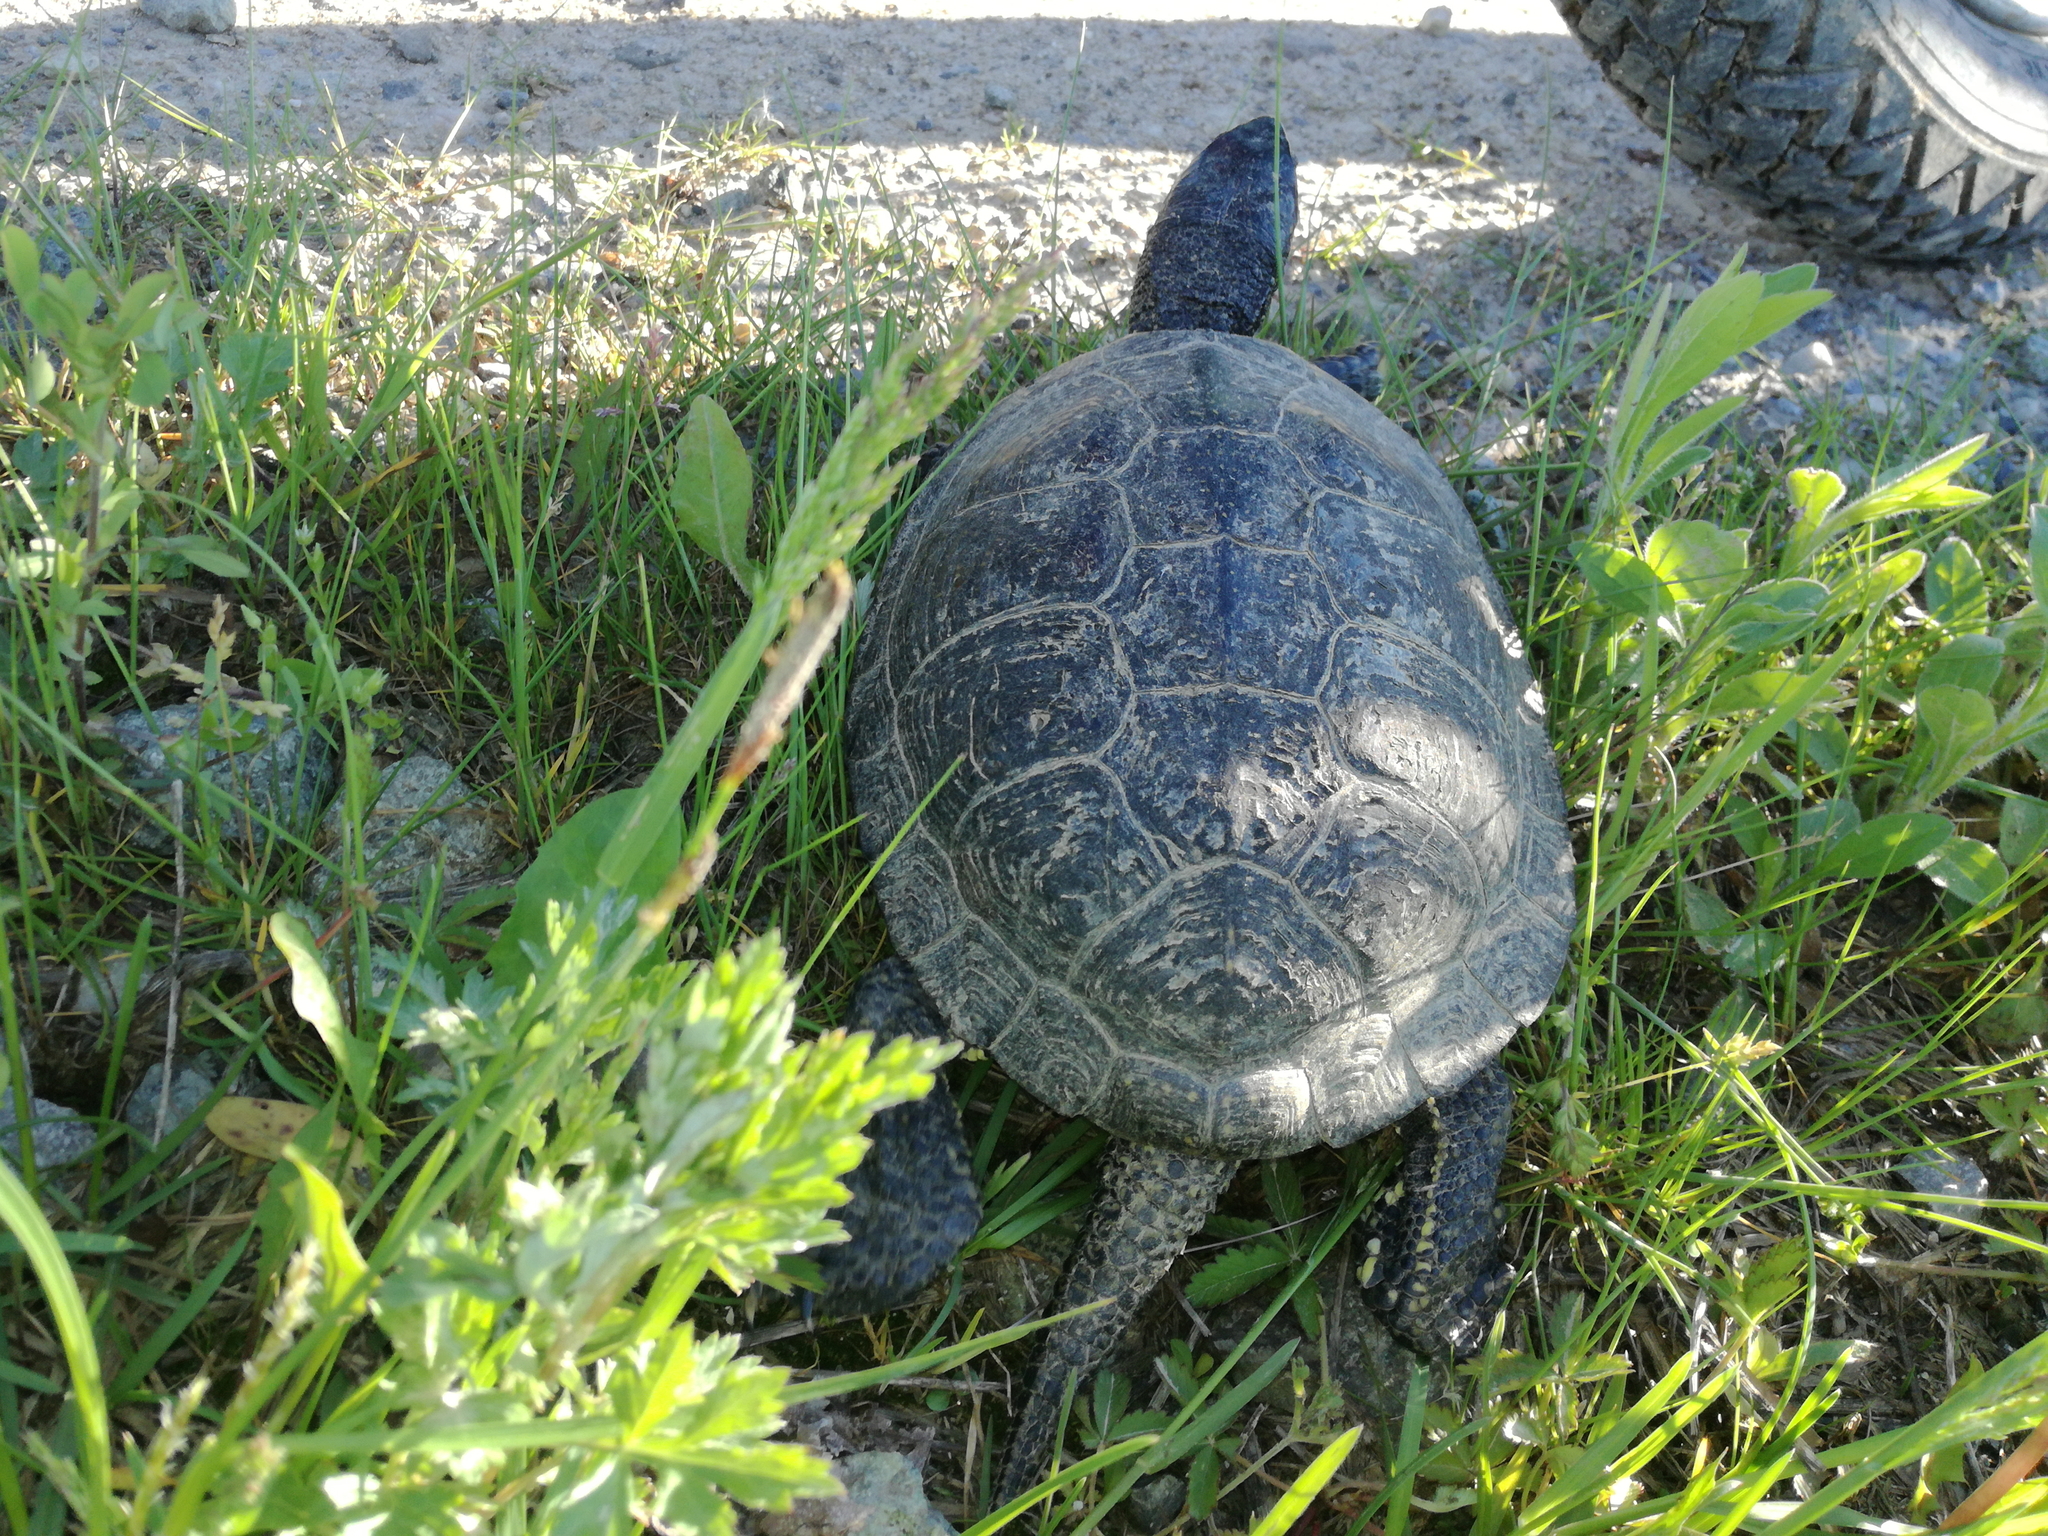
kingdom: Animalia
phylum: Chordata
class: Testudines
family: Emydidae
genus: Emys
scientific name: Emys orbicularis
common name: European pond turtle
